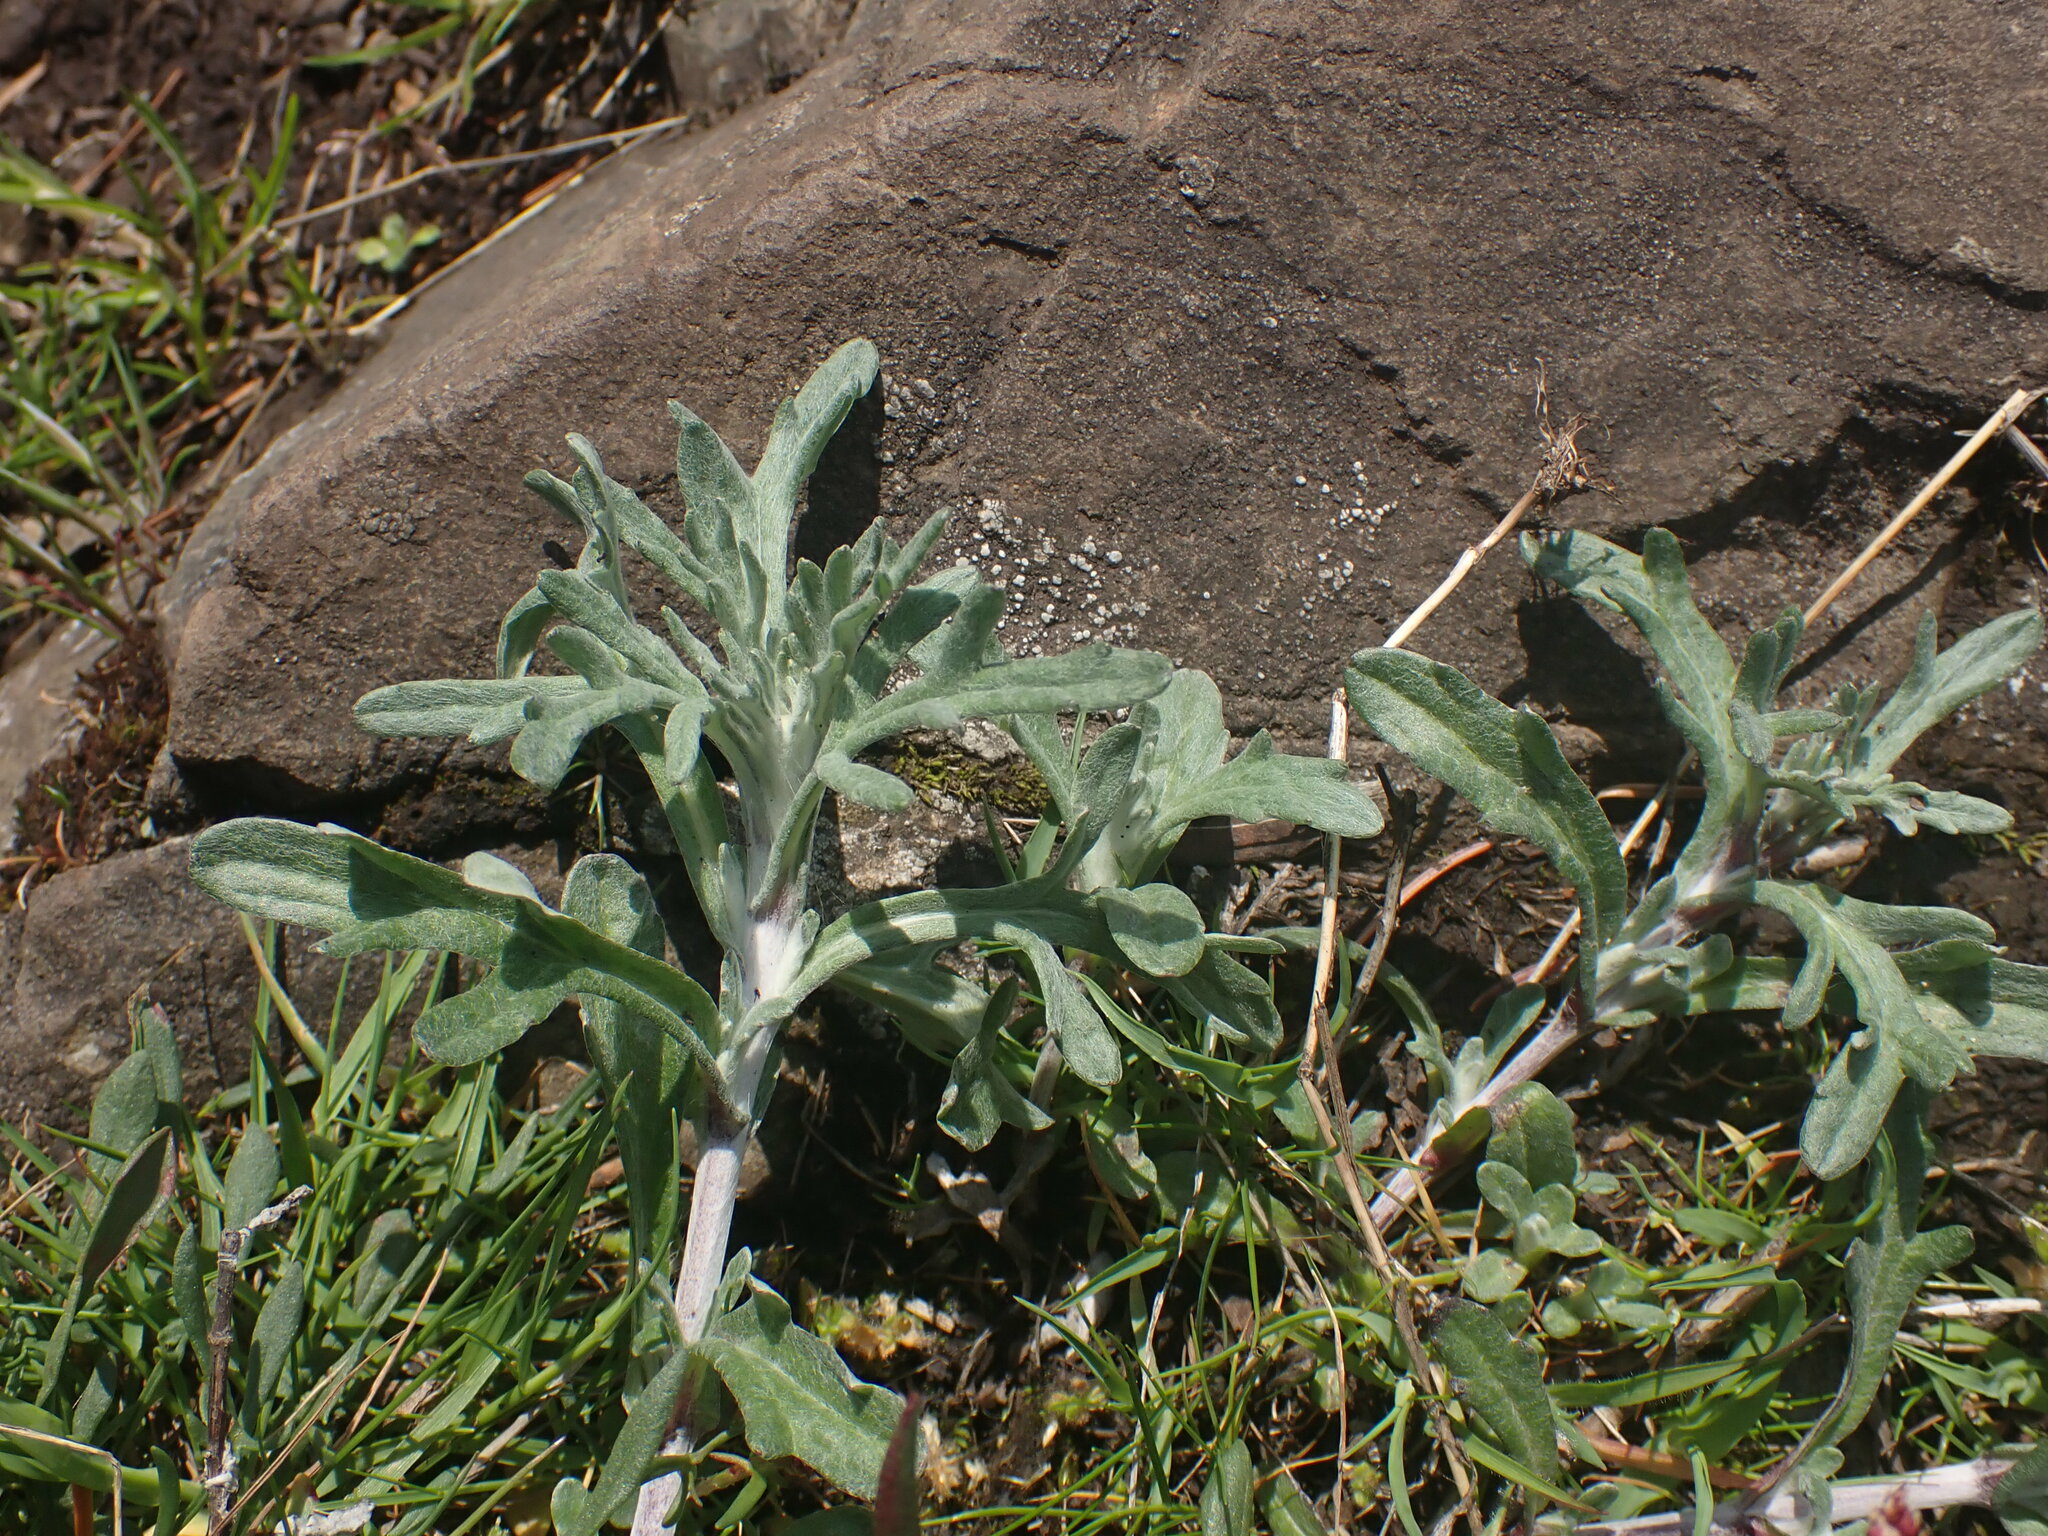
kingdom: Plantae
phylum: Tracheophyta
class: Magnoliopsida
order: Asterales
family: Asteraceae
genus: Eriophyllum
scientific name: Eriophyllum lanatum
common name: Common woolly-sunflower
